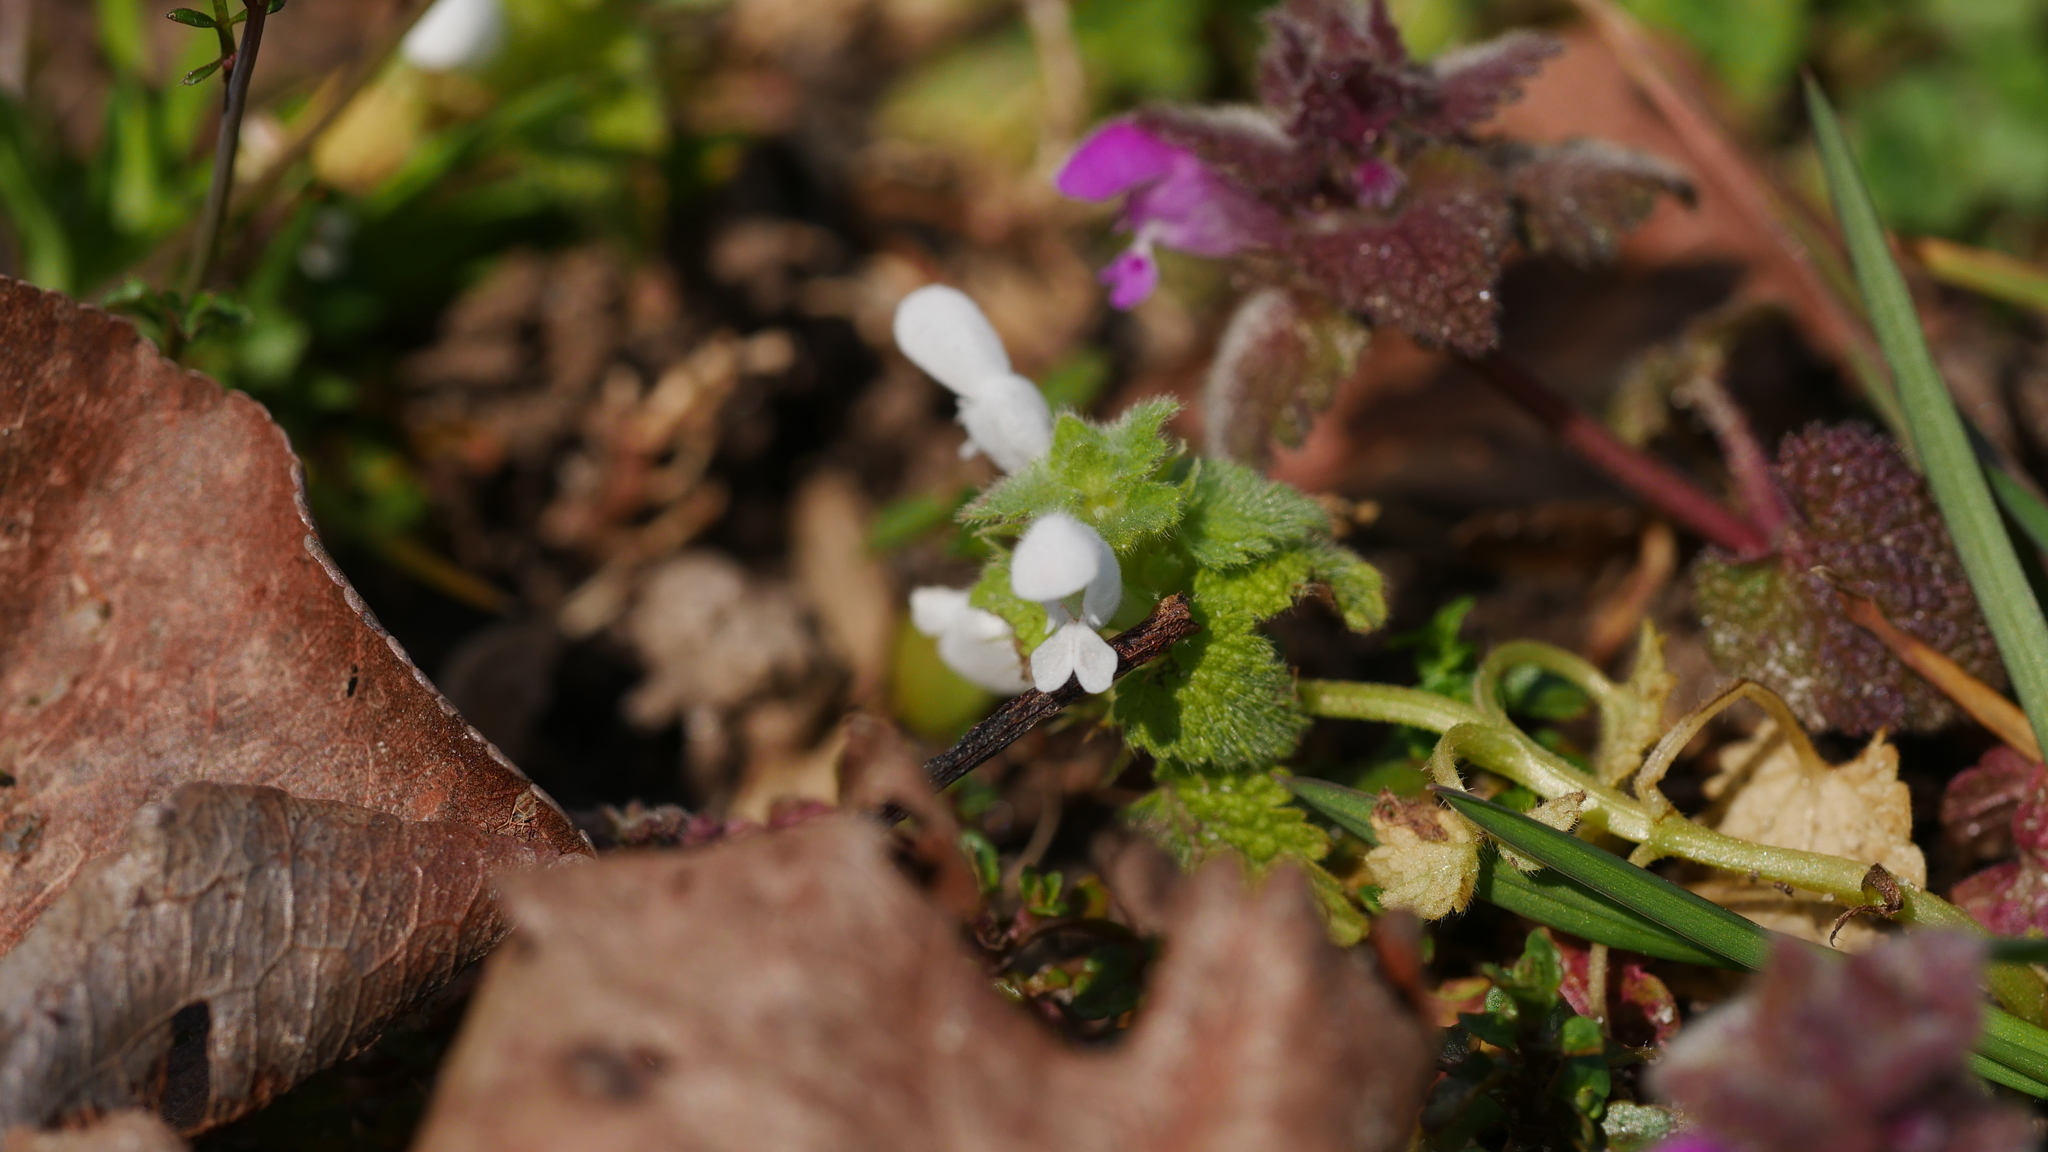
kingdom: Plantae
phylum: Tracheophyta
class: Magnoliopsida
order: Lamiales
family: Lamiaceae
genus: Lamium
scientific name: Lamium purpureum
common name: Red dead-nettle
